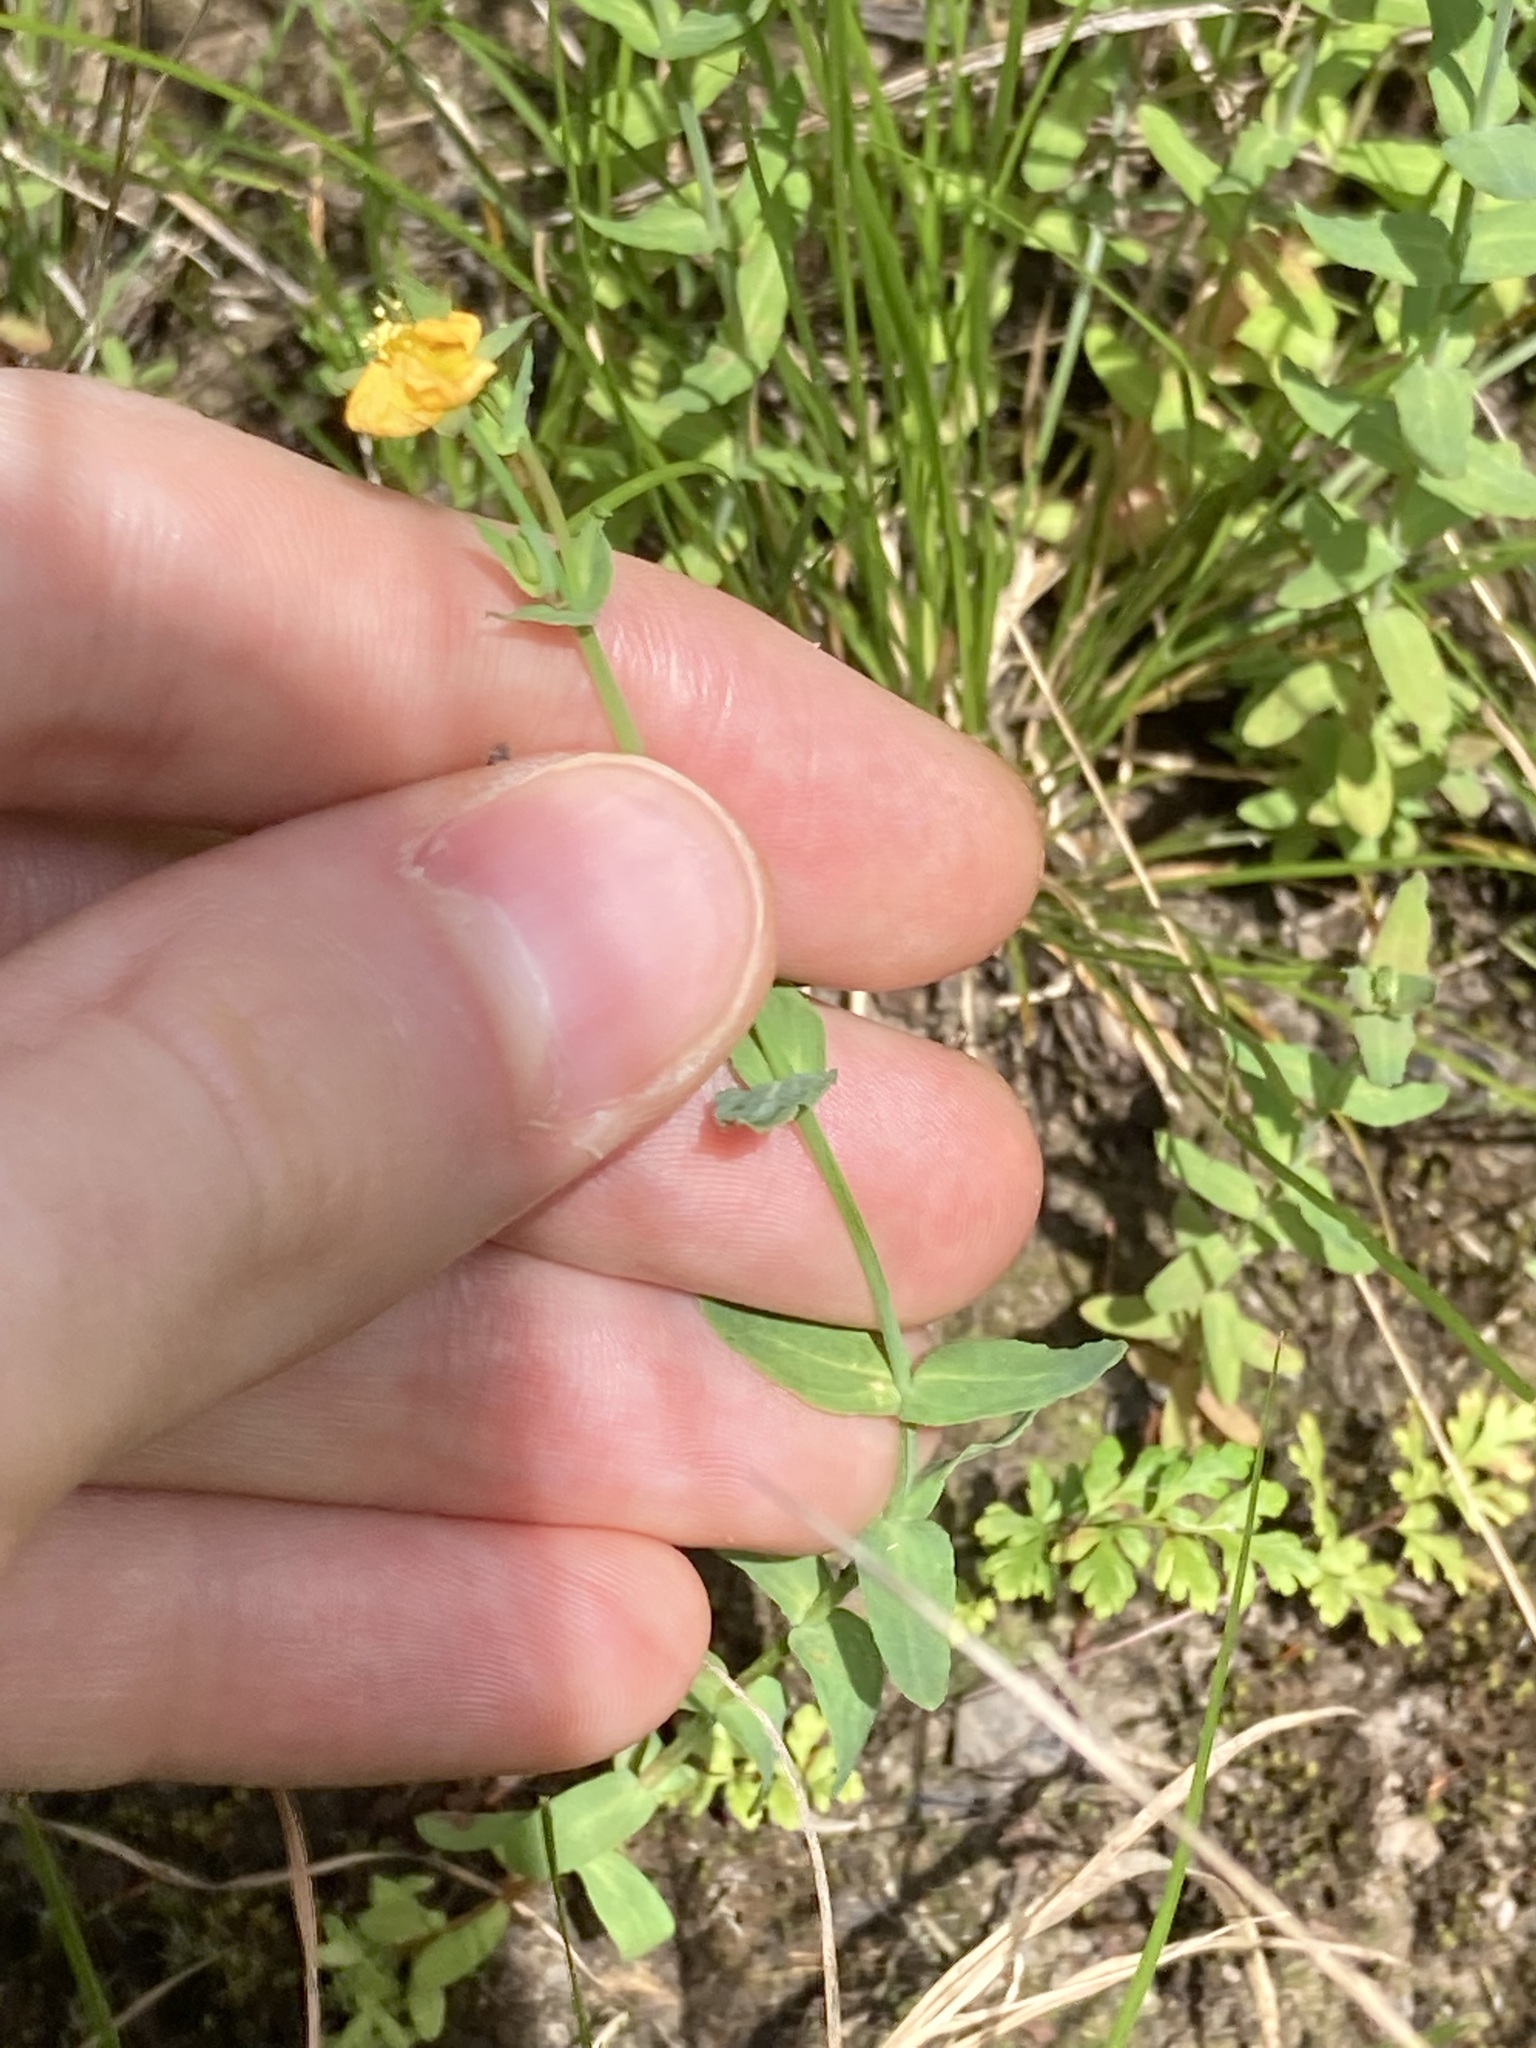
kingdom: Plantae
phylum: Tracheophyta
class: Magnoliopsida
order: Malpighiales
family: Hypericaceae
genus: Hypericum
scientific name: Hypericum gramineum
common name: Grassy st. johnswort
